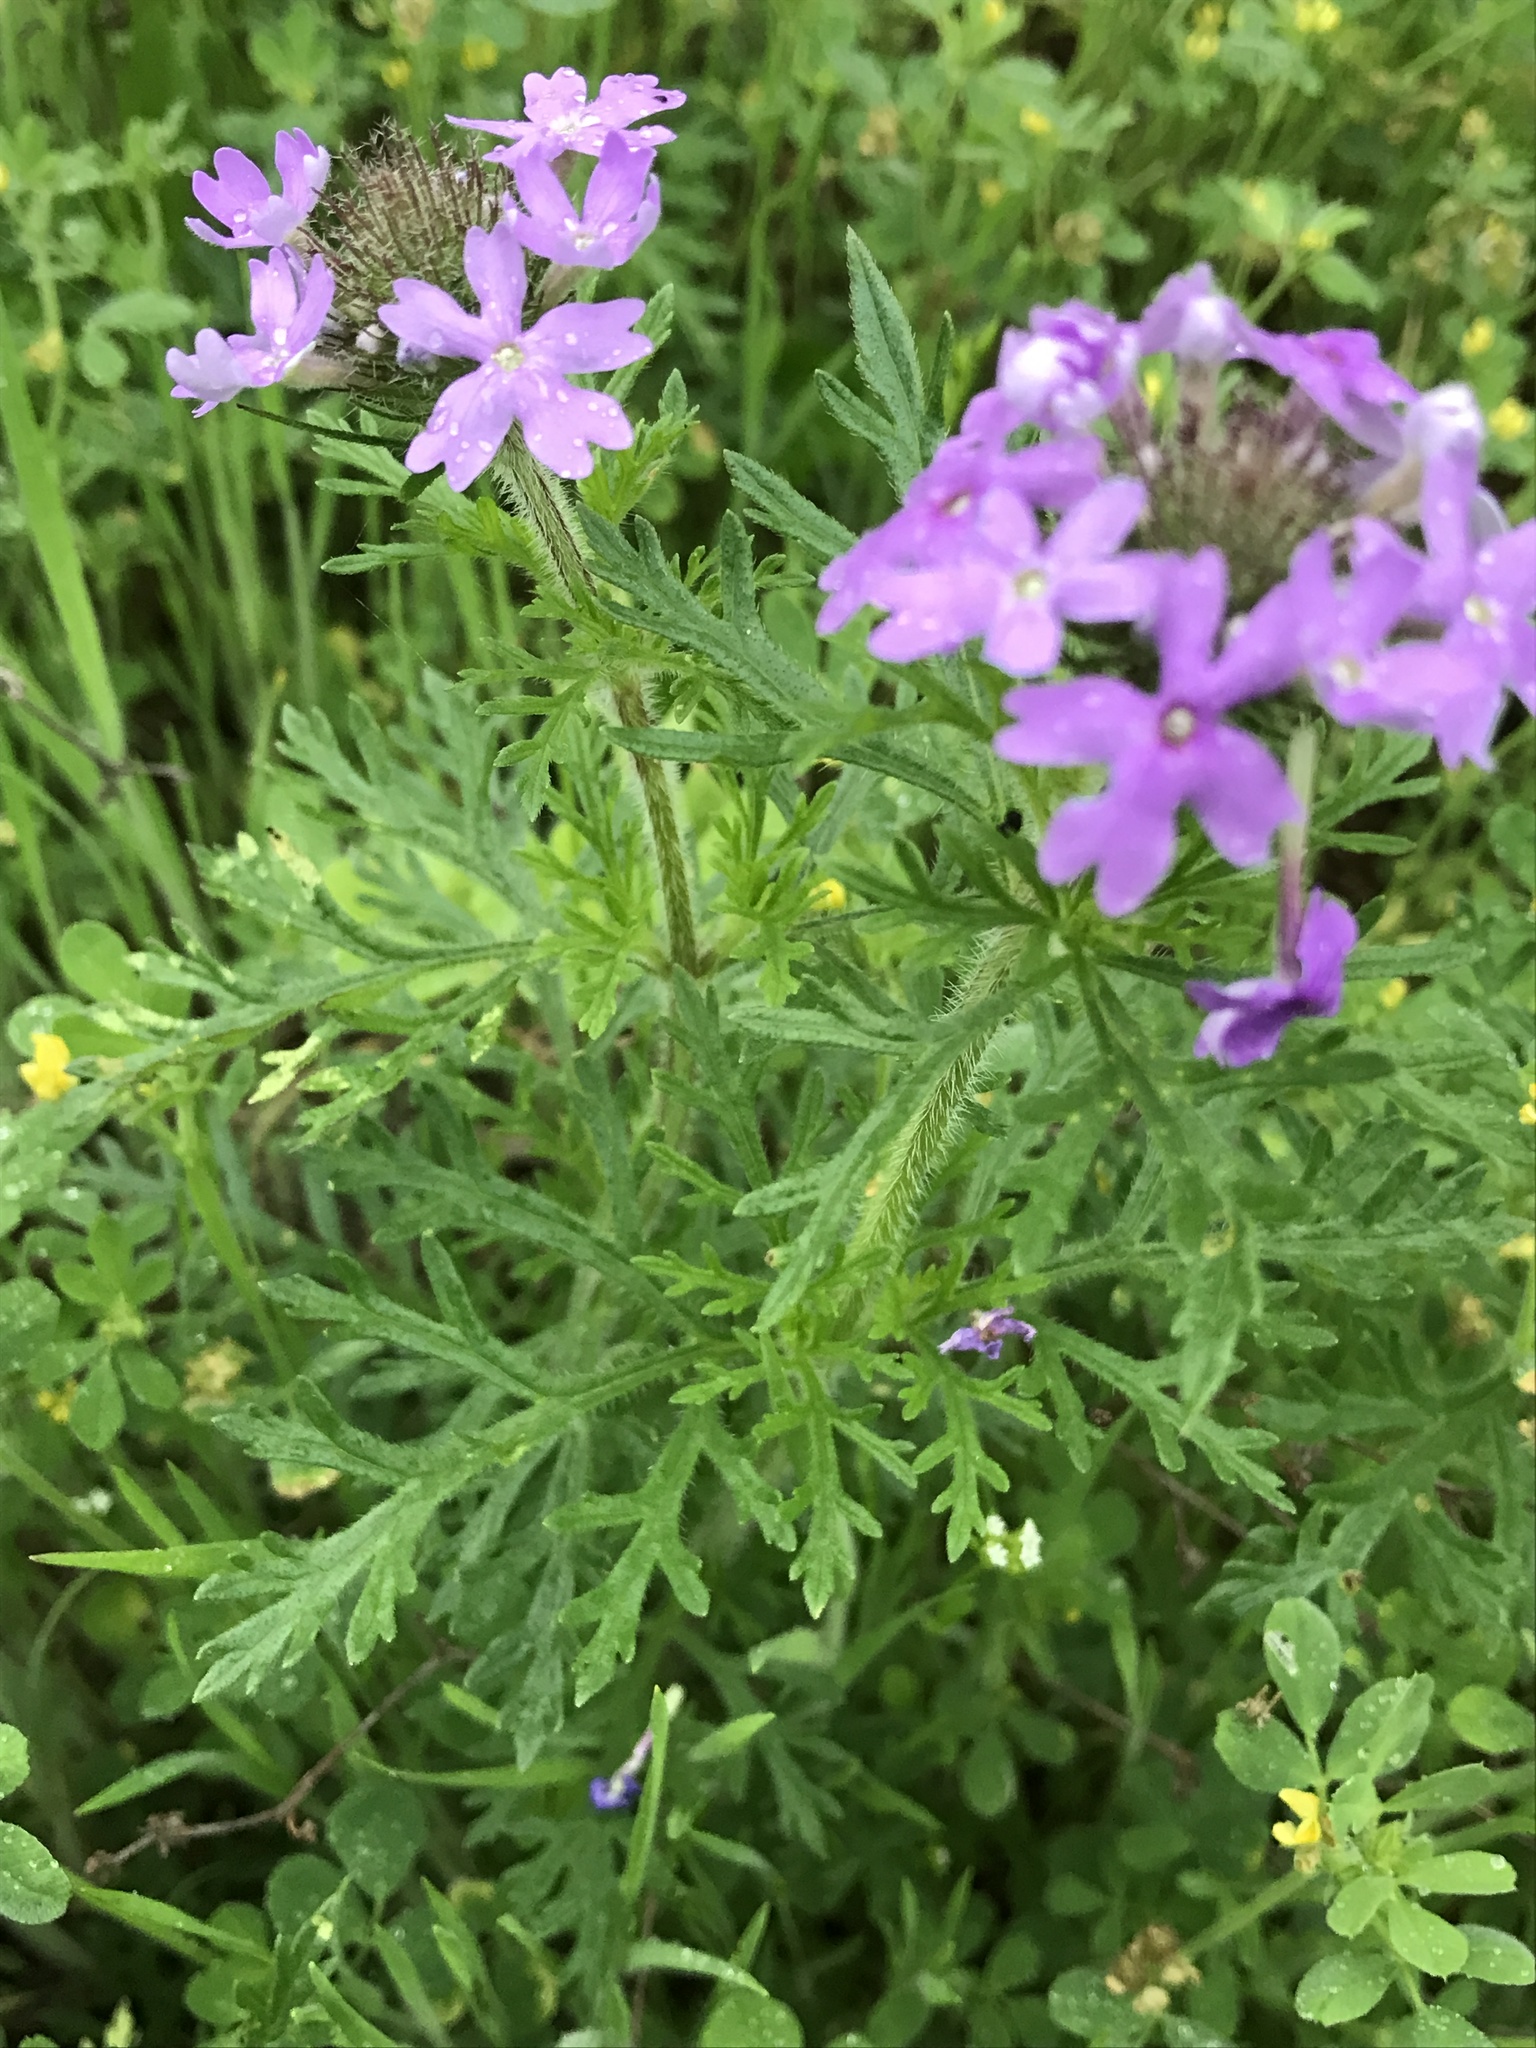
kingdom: Plantae
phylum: Tracheophyta
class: Magnoliopsida
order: Lamiales
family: Verbenaceae
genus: Verbena
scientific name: Verbena bipinnatifida
